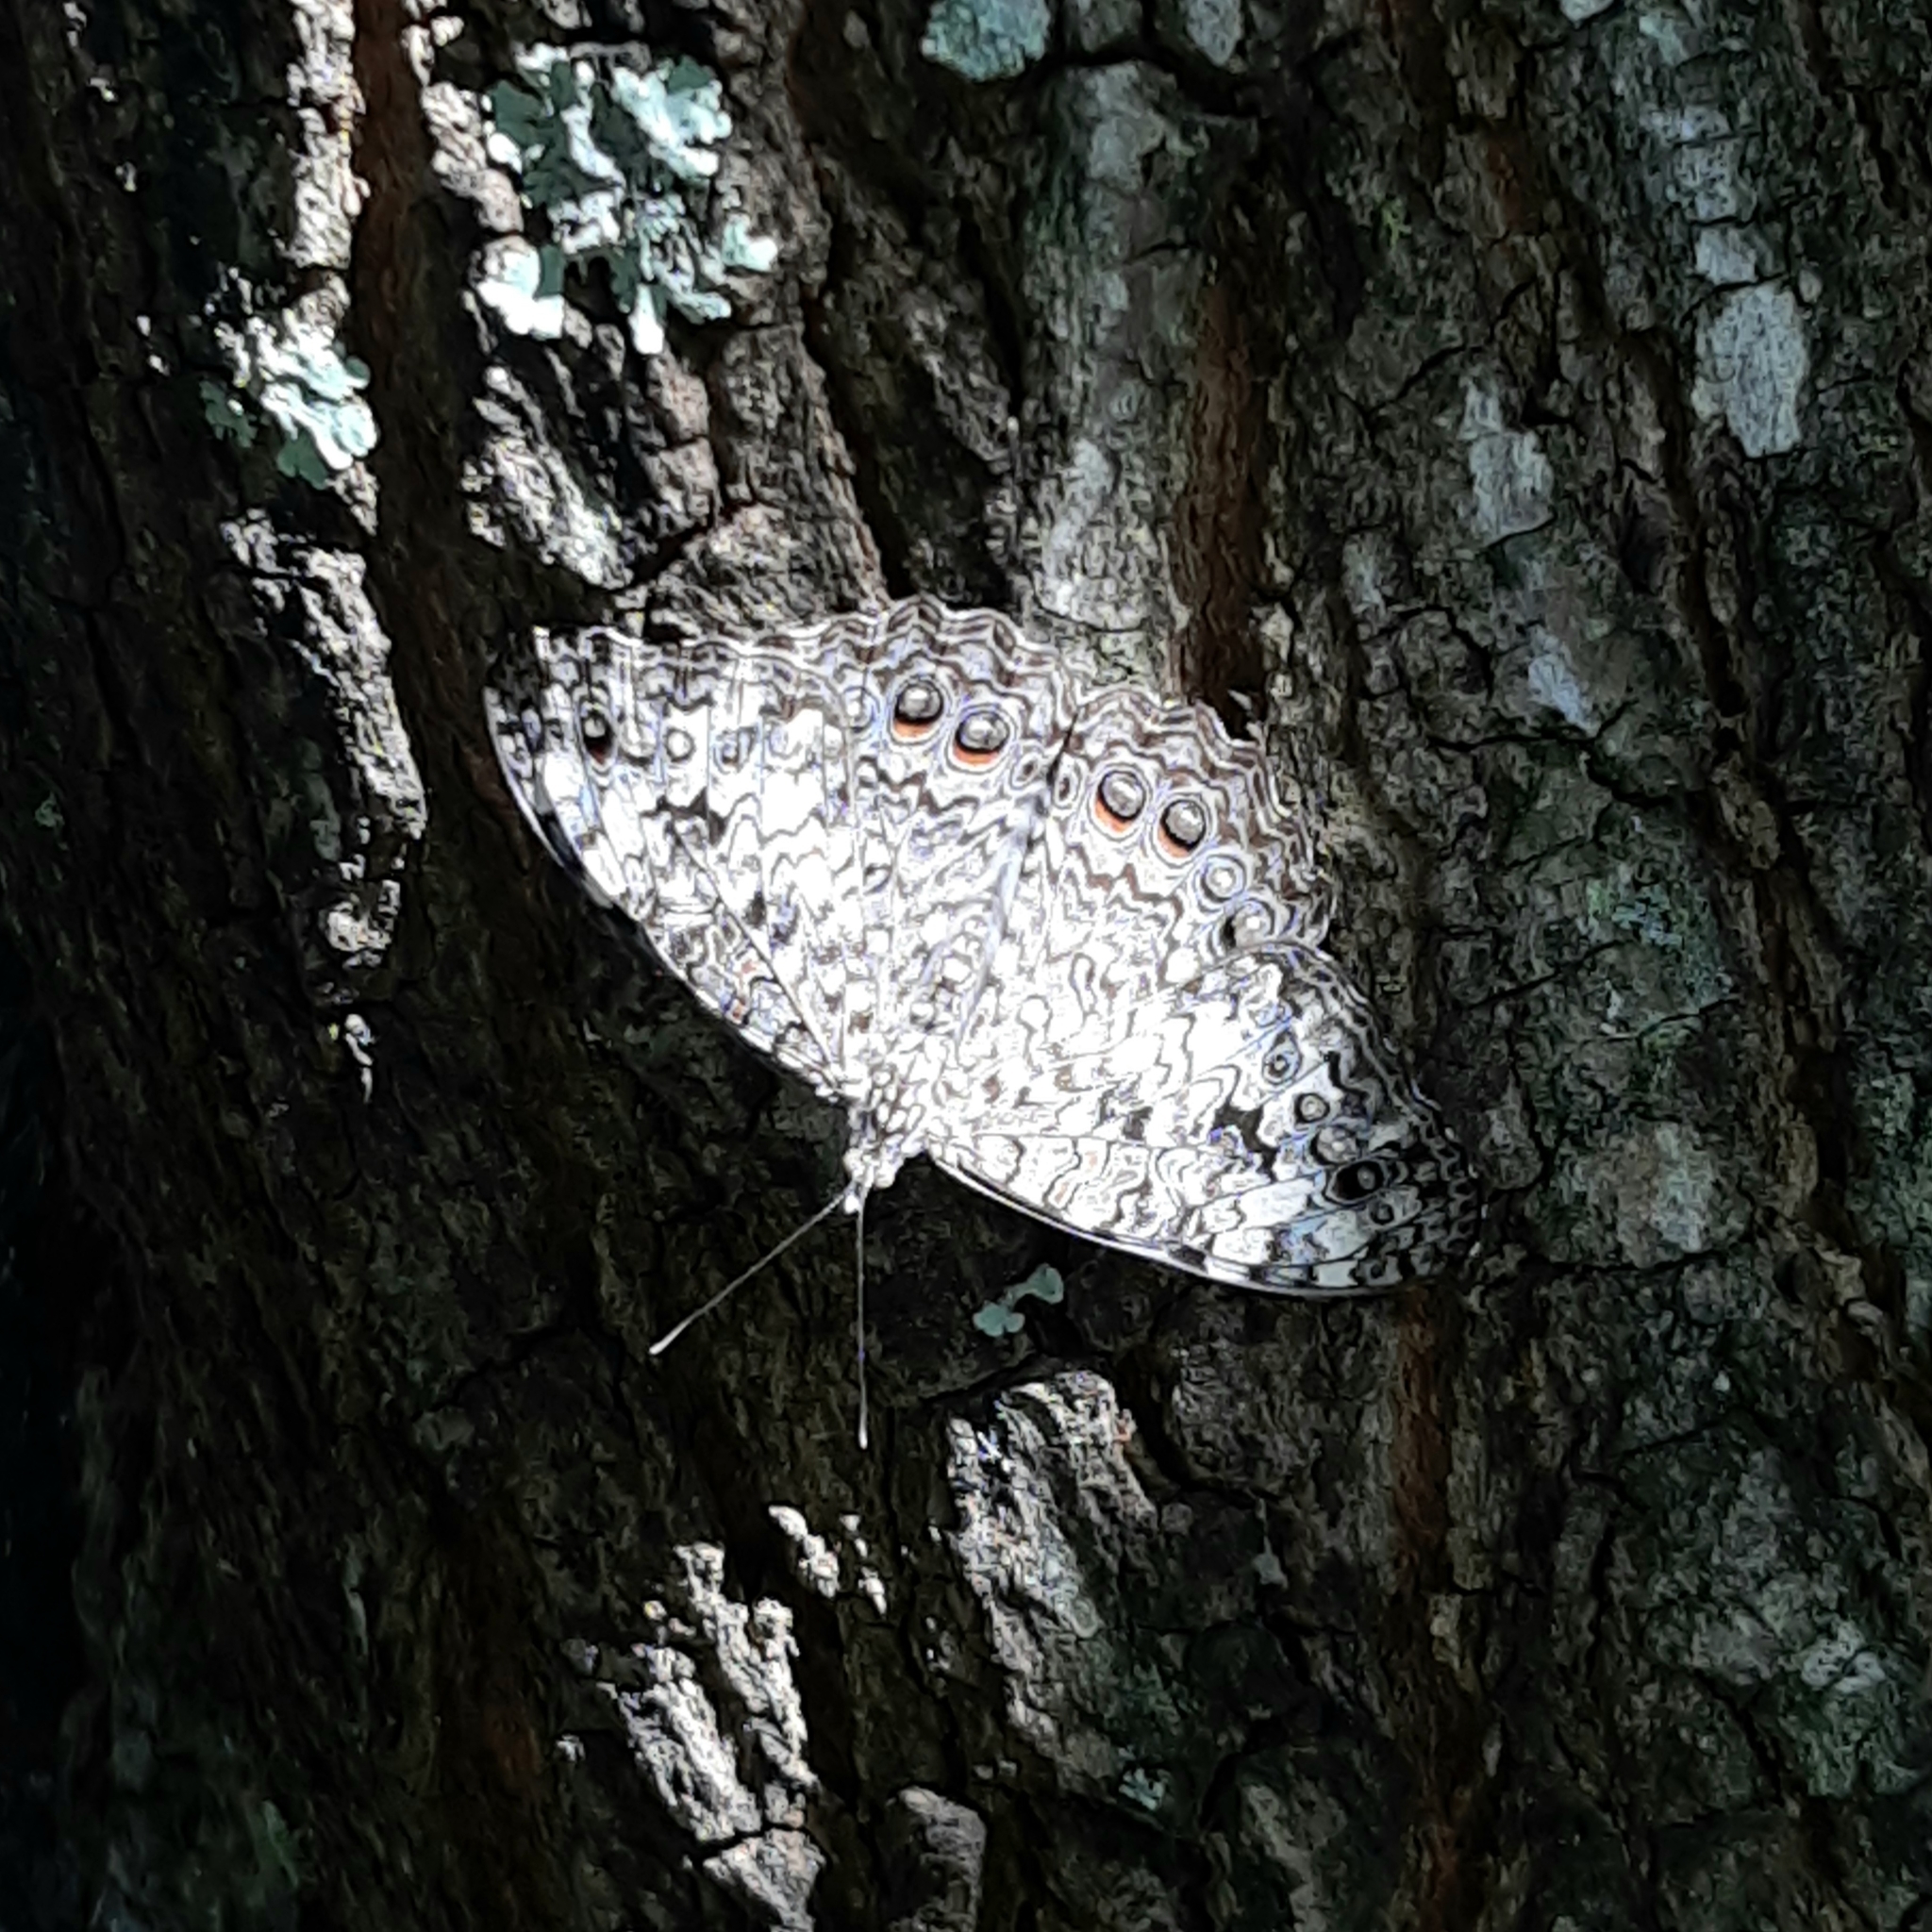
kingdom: Animalia
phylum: Arthropoda
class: Insecta
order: Lepidoptera
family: Nymphalidae
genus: Hamadryas
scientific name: Hamadryas februa
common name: Gray cracker
